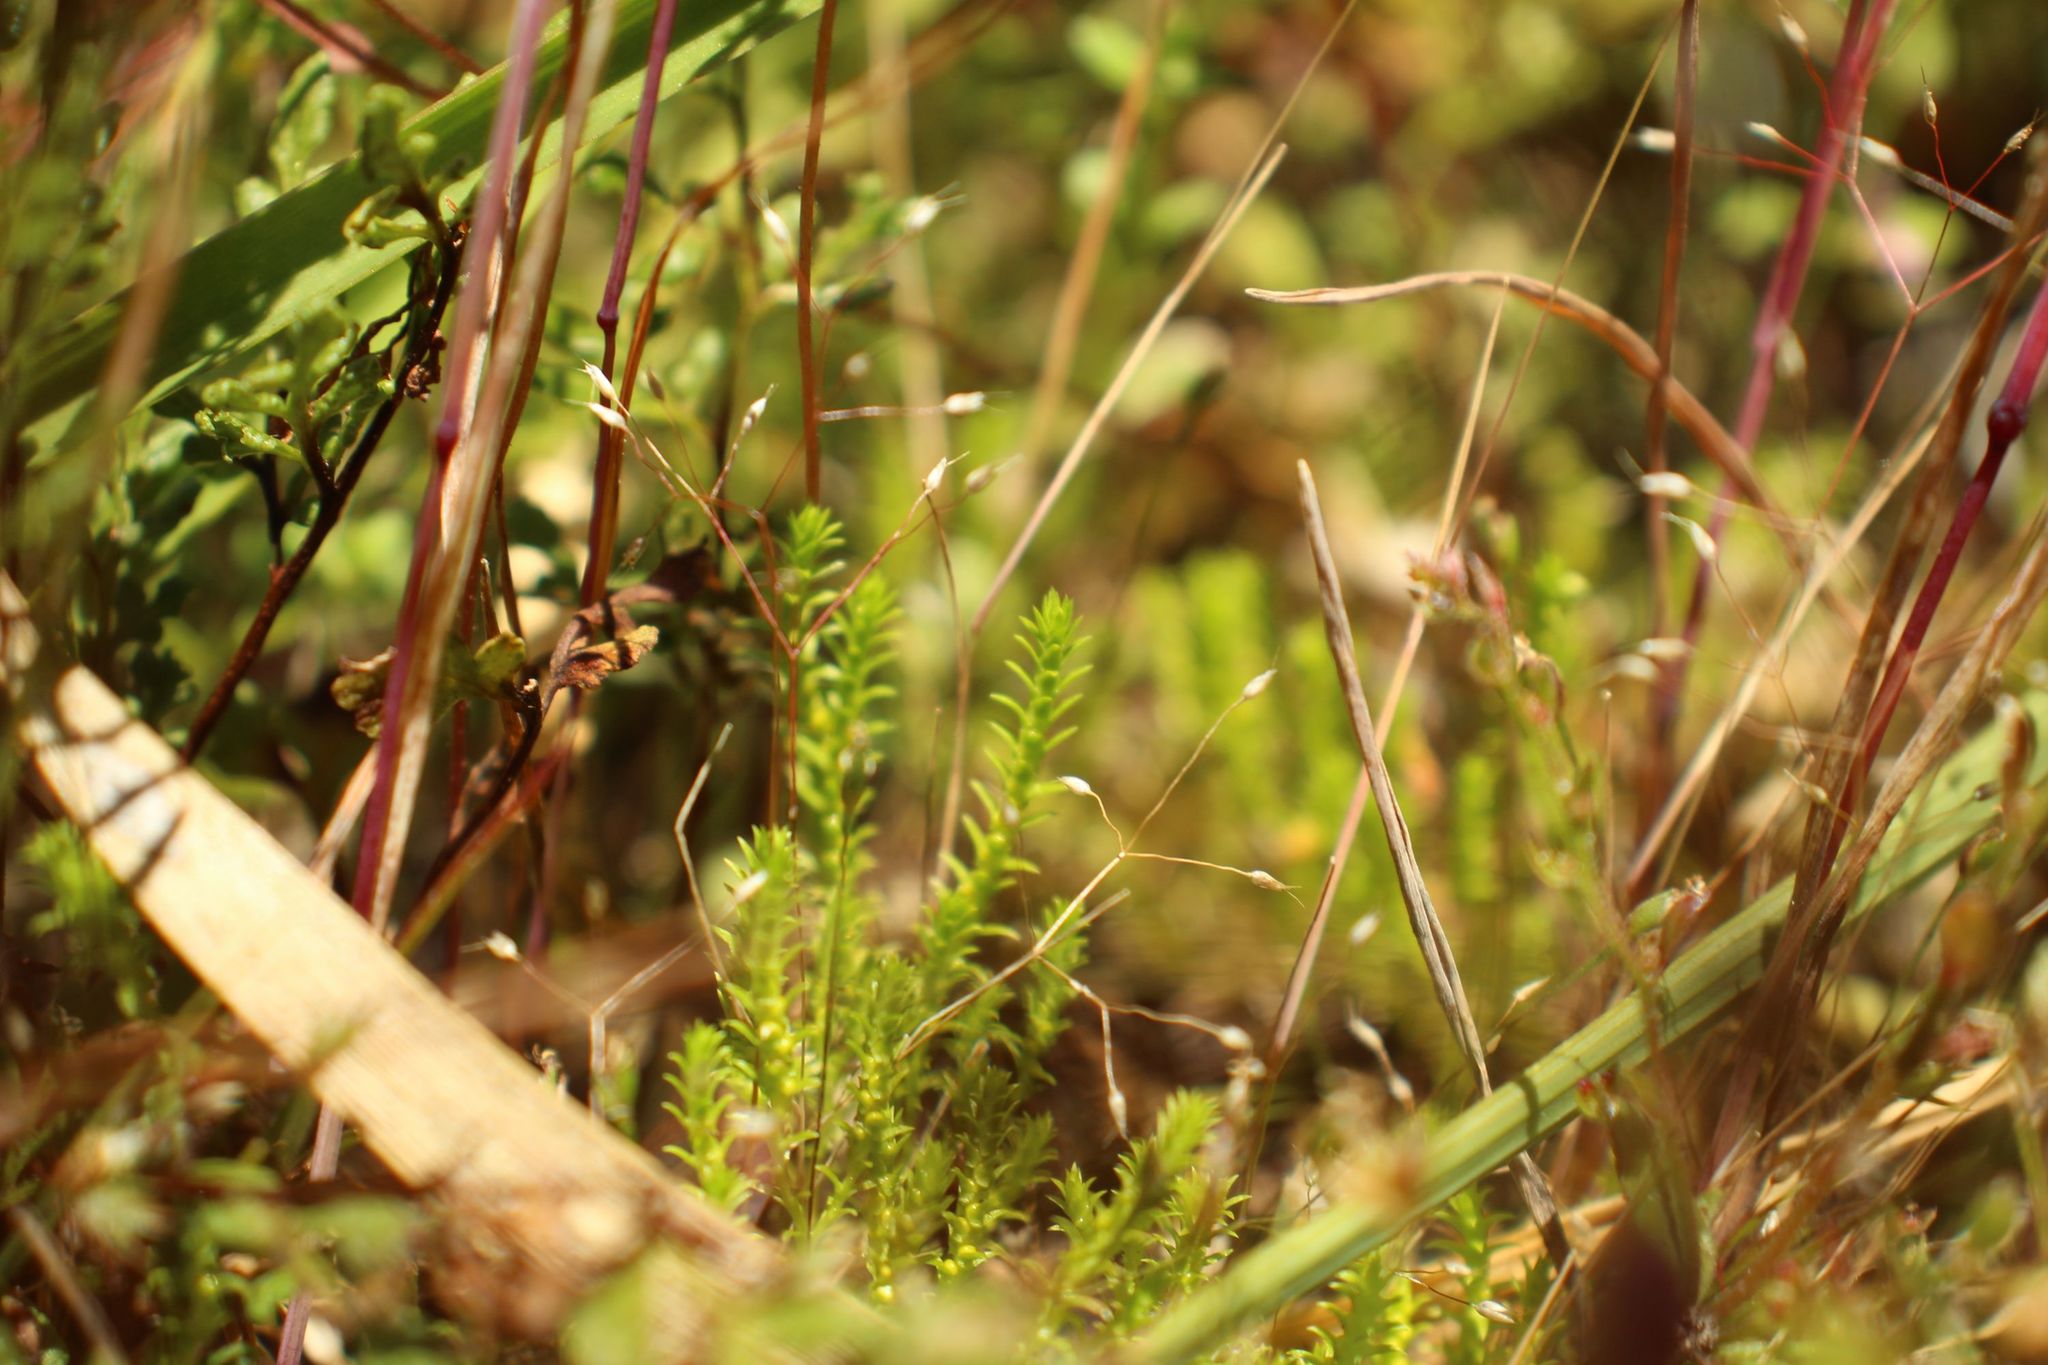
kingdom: Plantae
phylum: Tracheophyta
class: Lycopodiopsida
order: Selaginellales
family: Selaginellaceae
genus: Selaginella
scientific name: Selaginella gracillima
